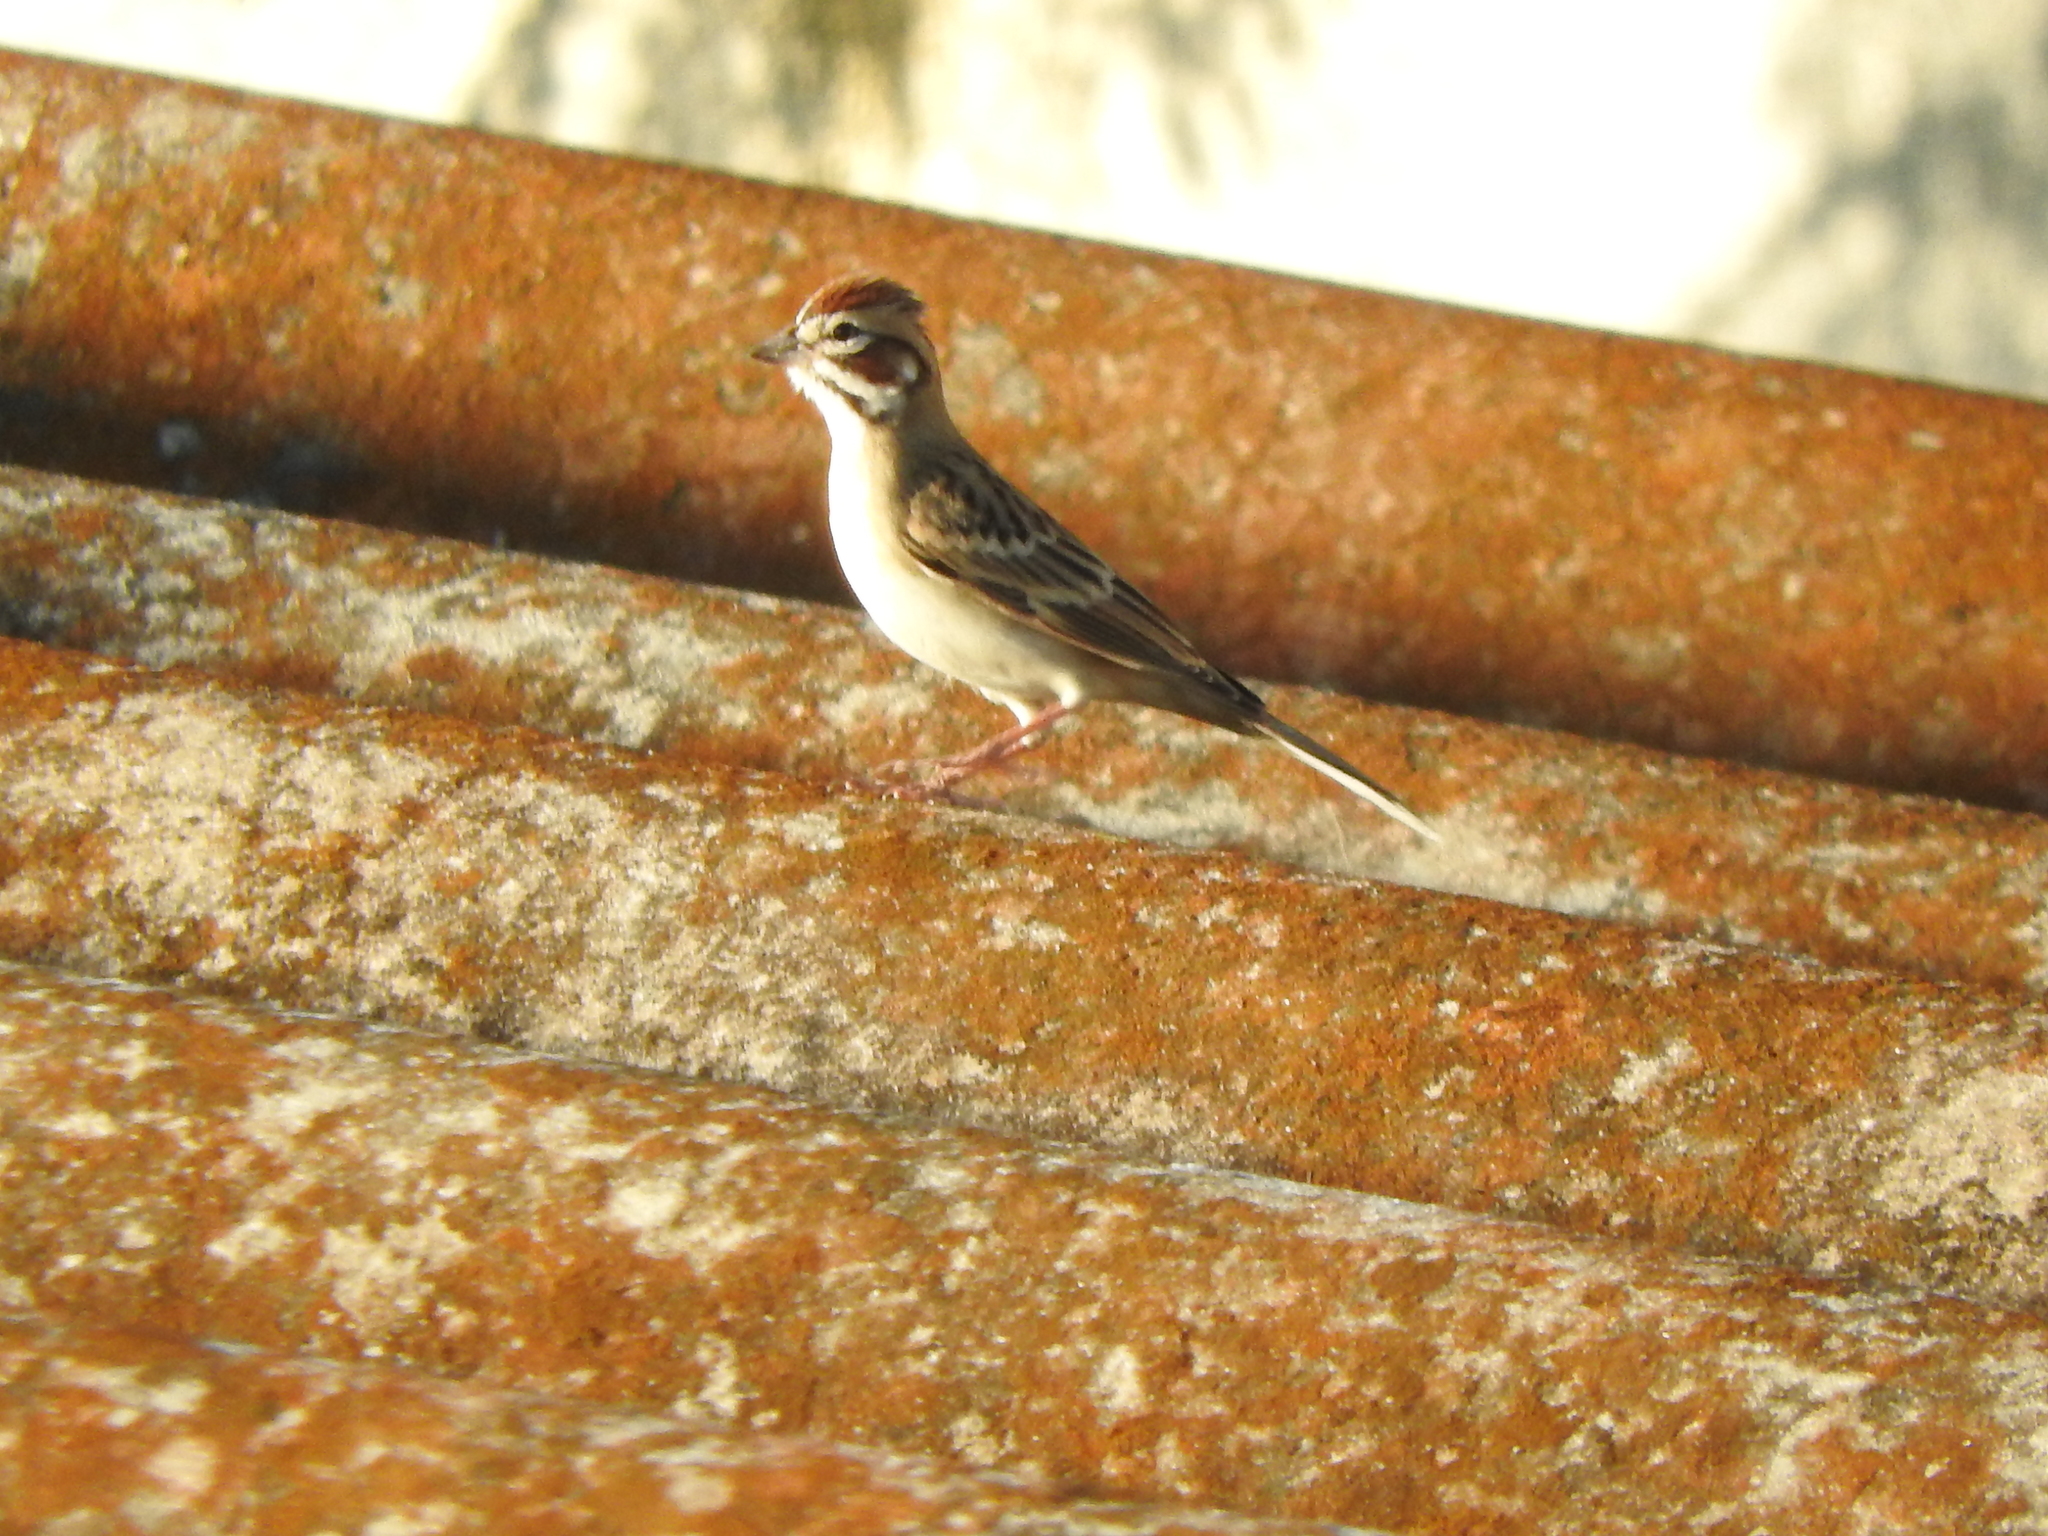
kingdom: Animalia
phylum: Chordata
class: Aves
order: Passeriformes
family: Passerellidae
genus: Chondestes
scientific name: Chondestes grammacus
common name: Lark sparrow
